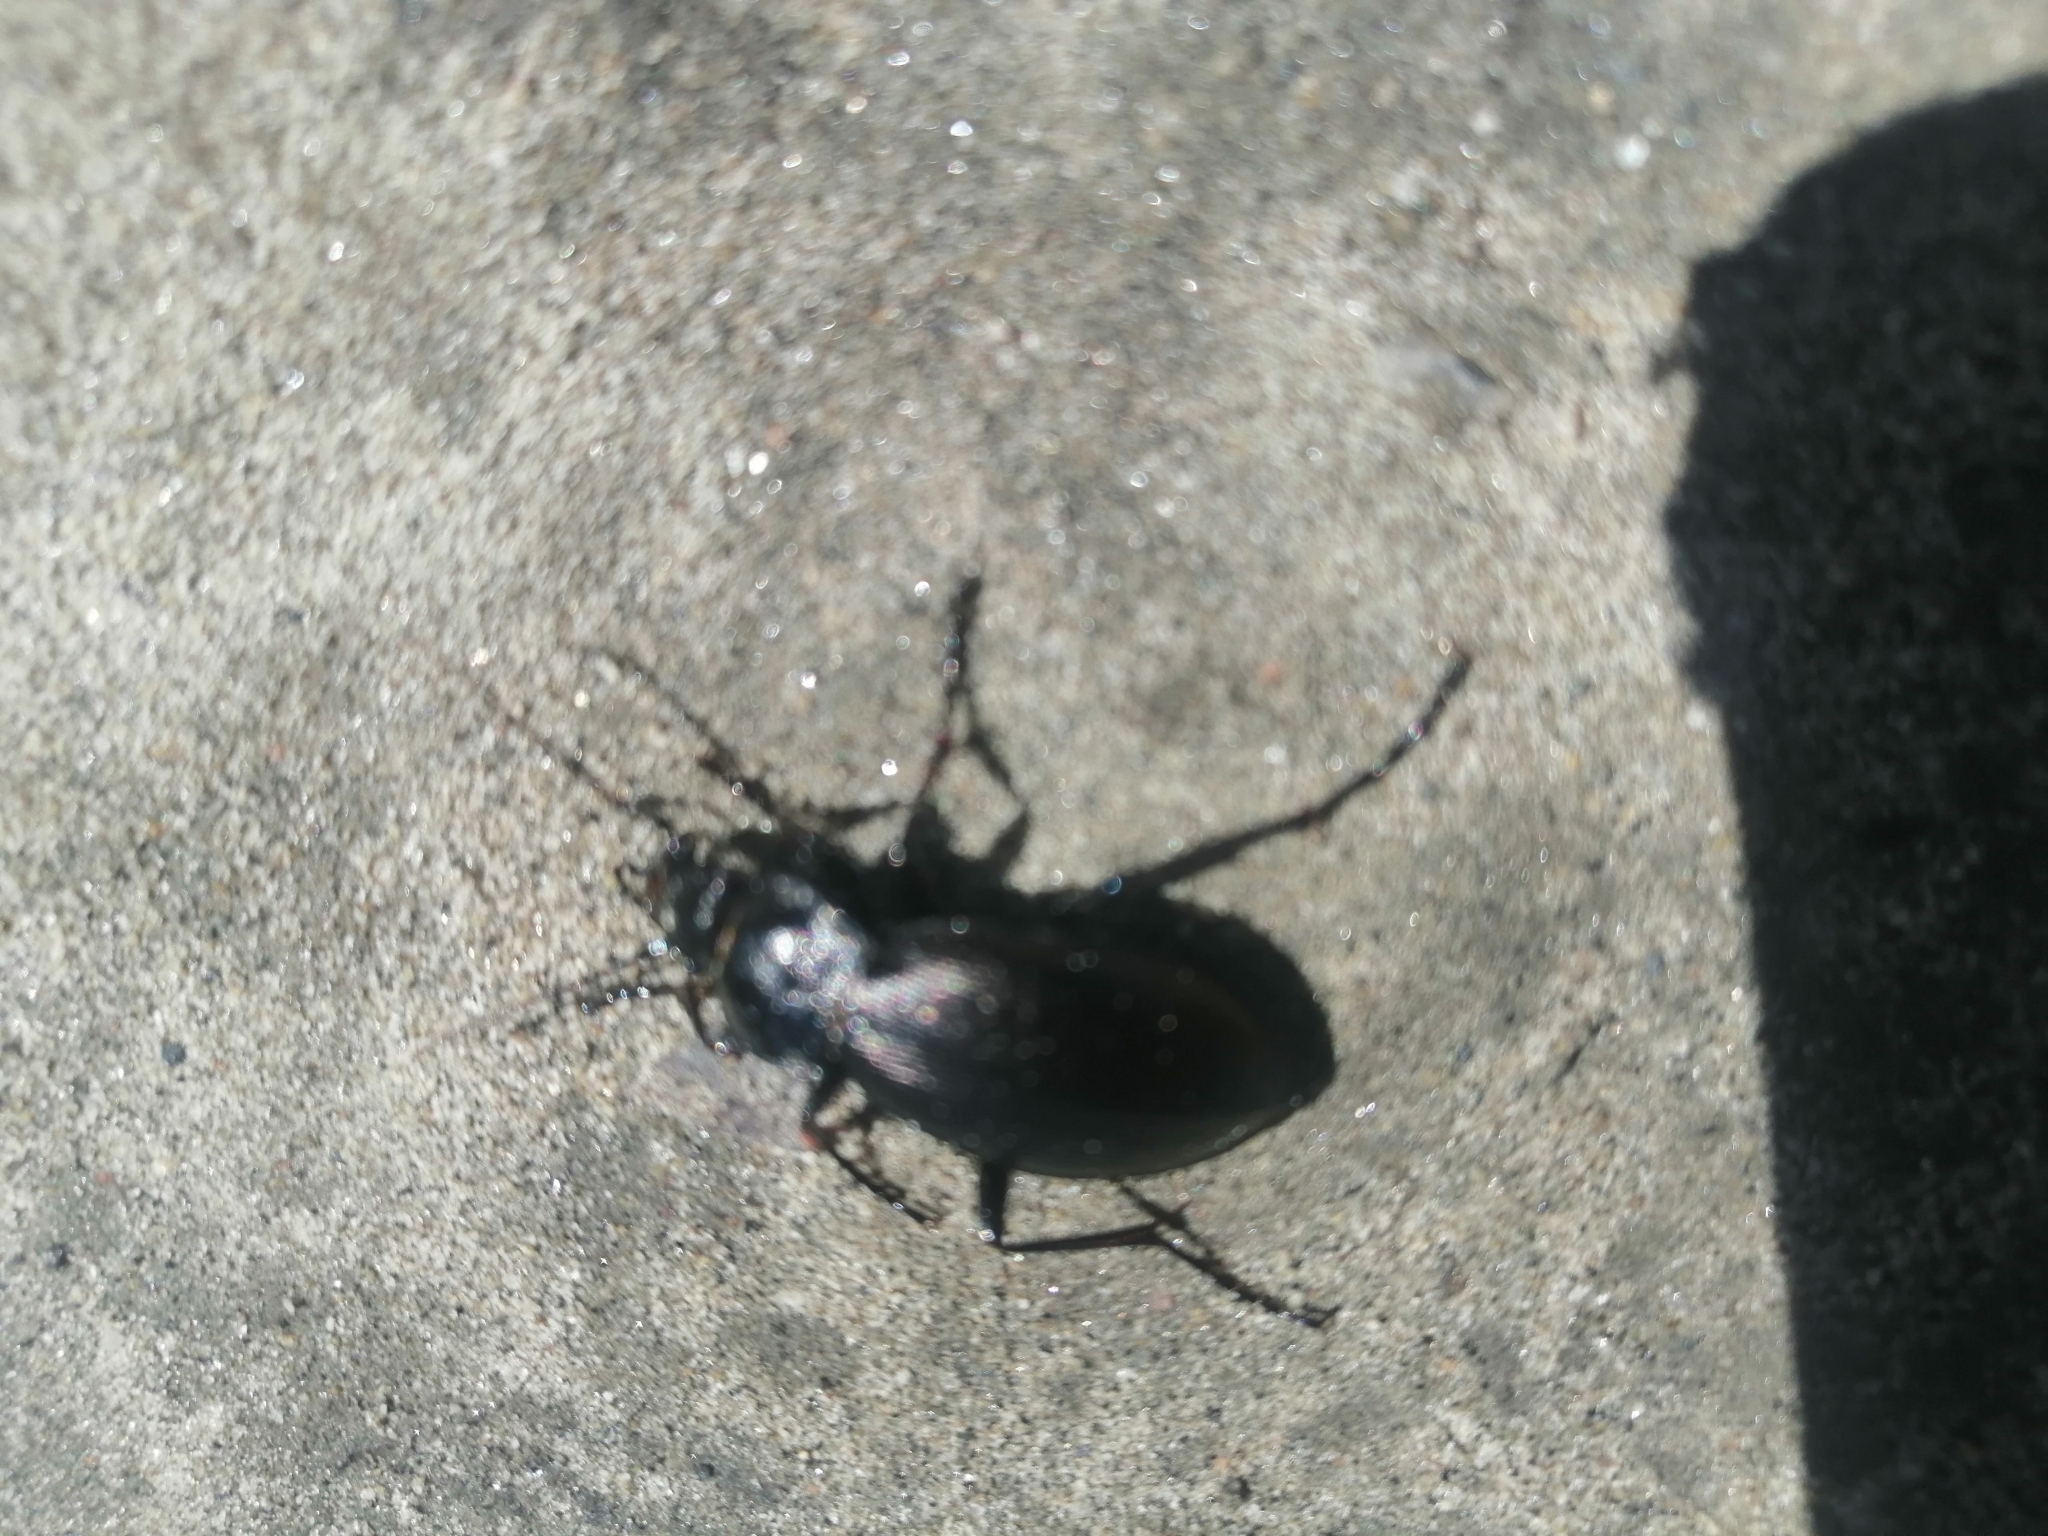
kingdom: Animalia
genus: Morphocarabus
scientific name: Morphocarabus
